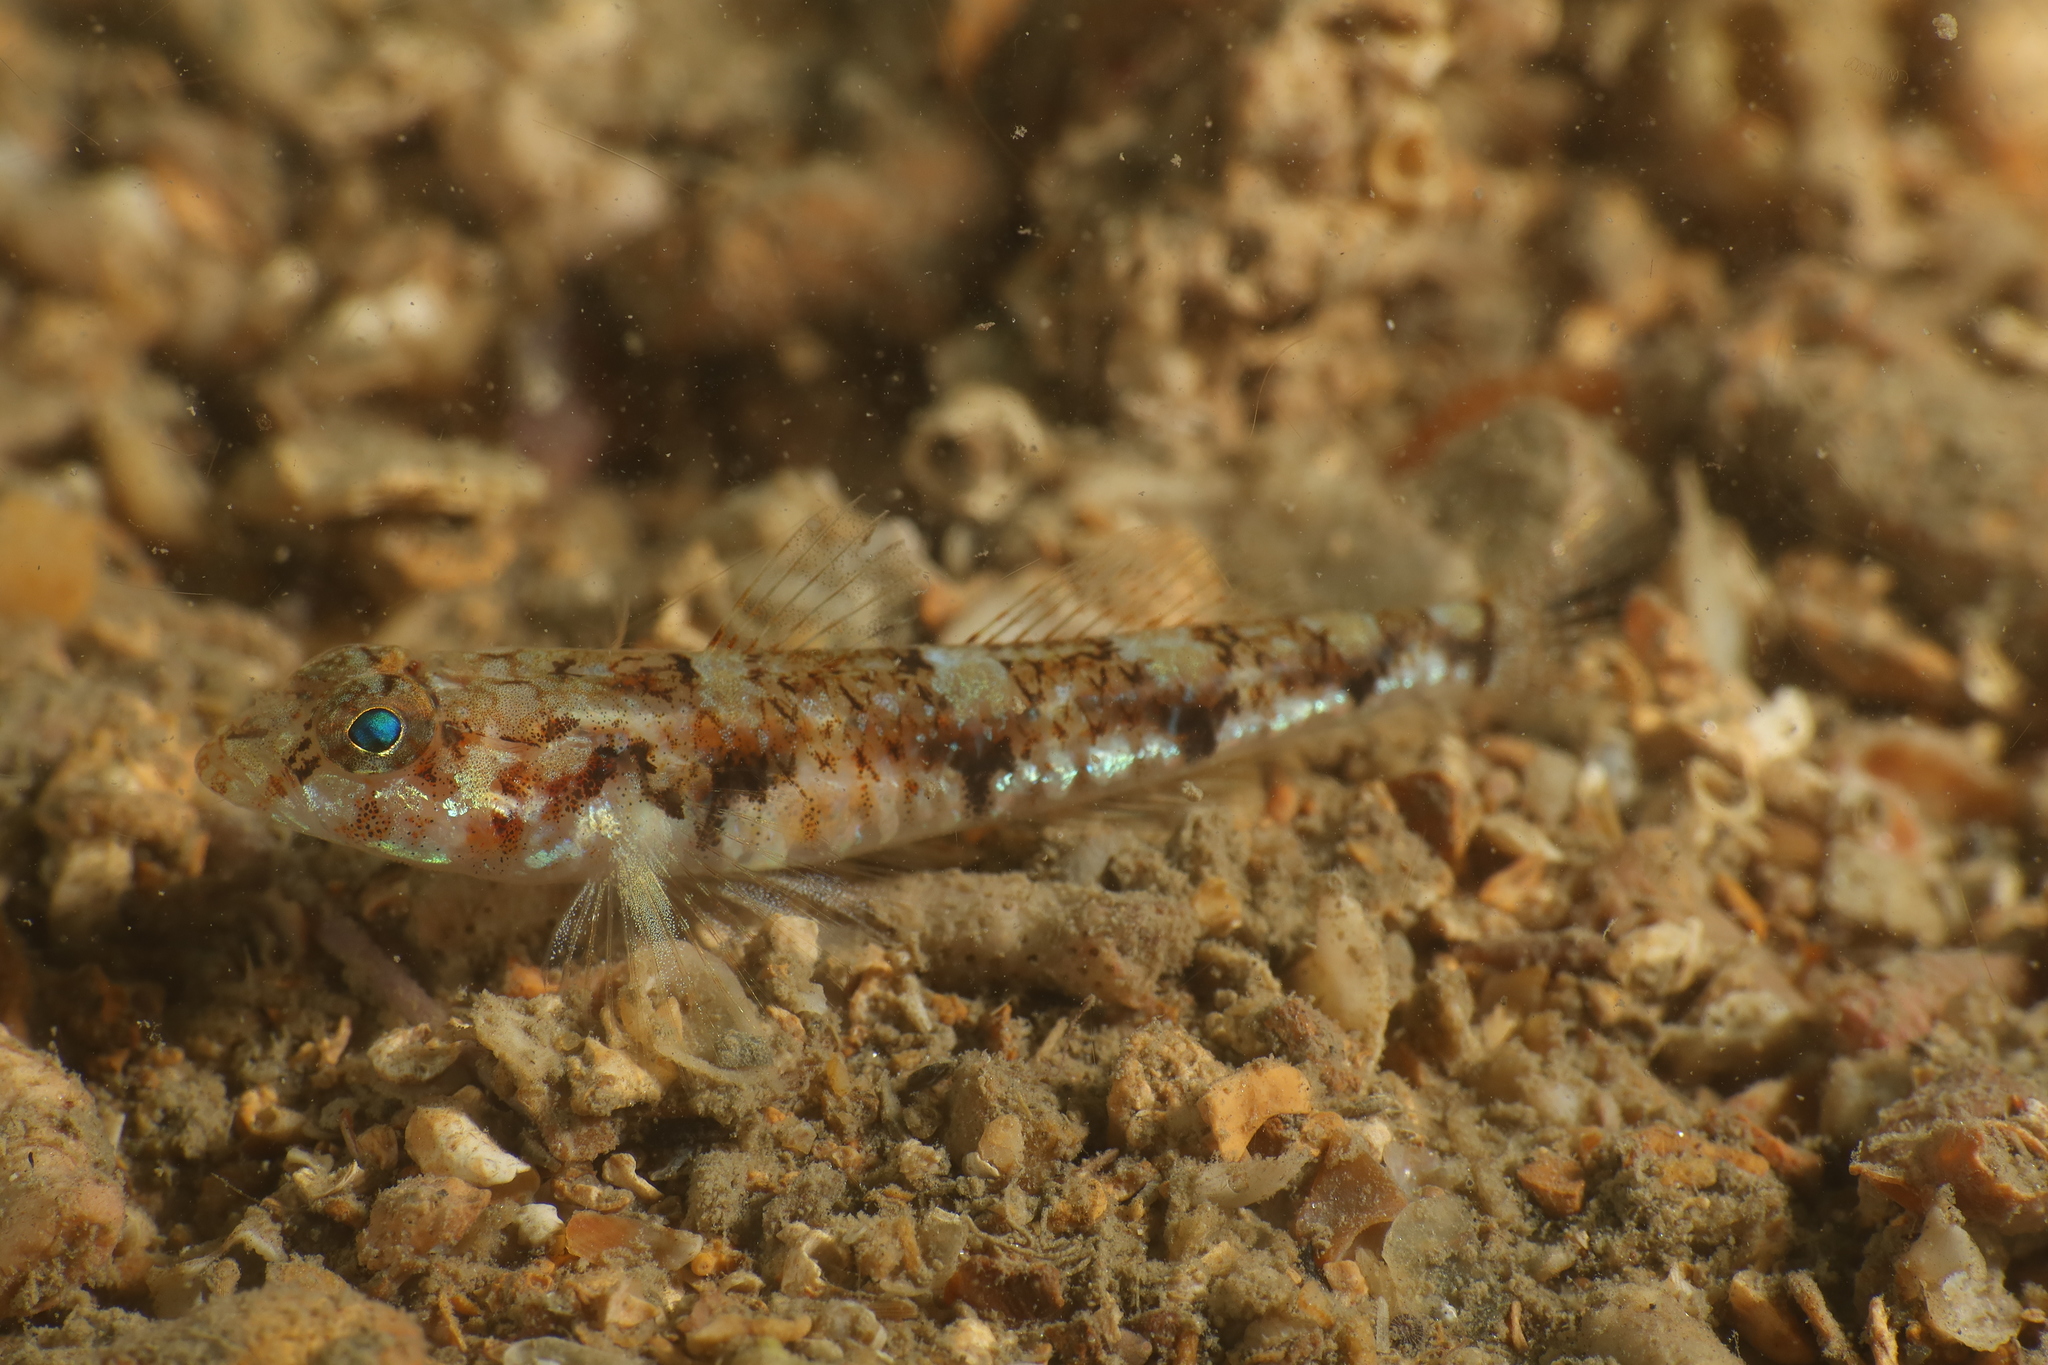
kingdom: Animalia
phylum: Chordata
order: Perciformes
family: Gobiidae
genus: Buenia
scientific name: Buenia affinis
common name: De buen's goby
